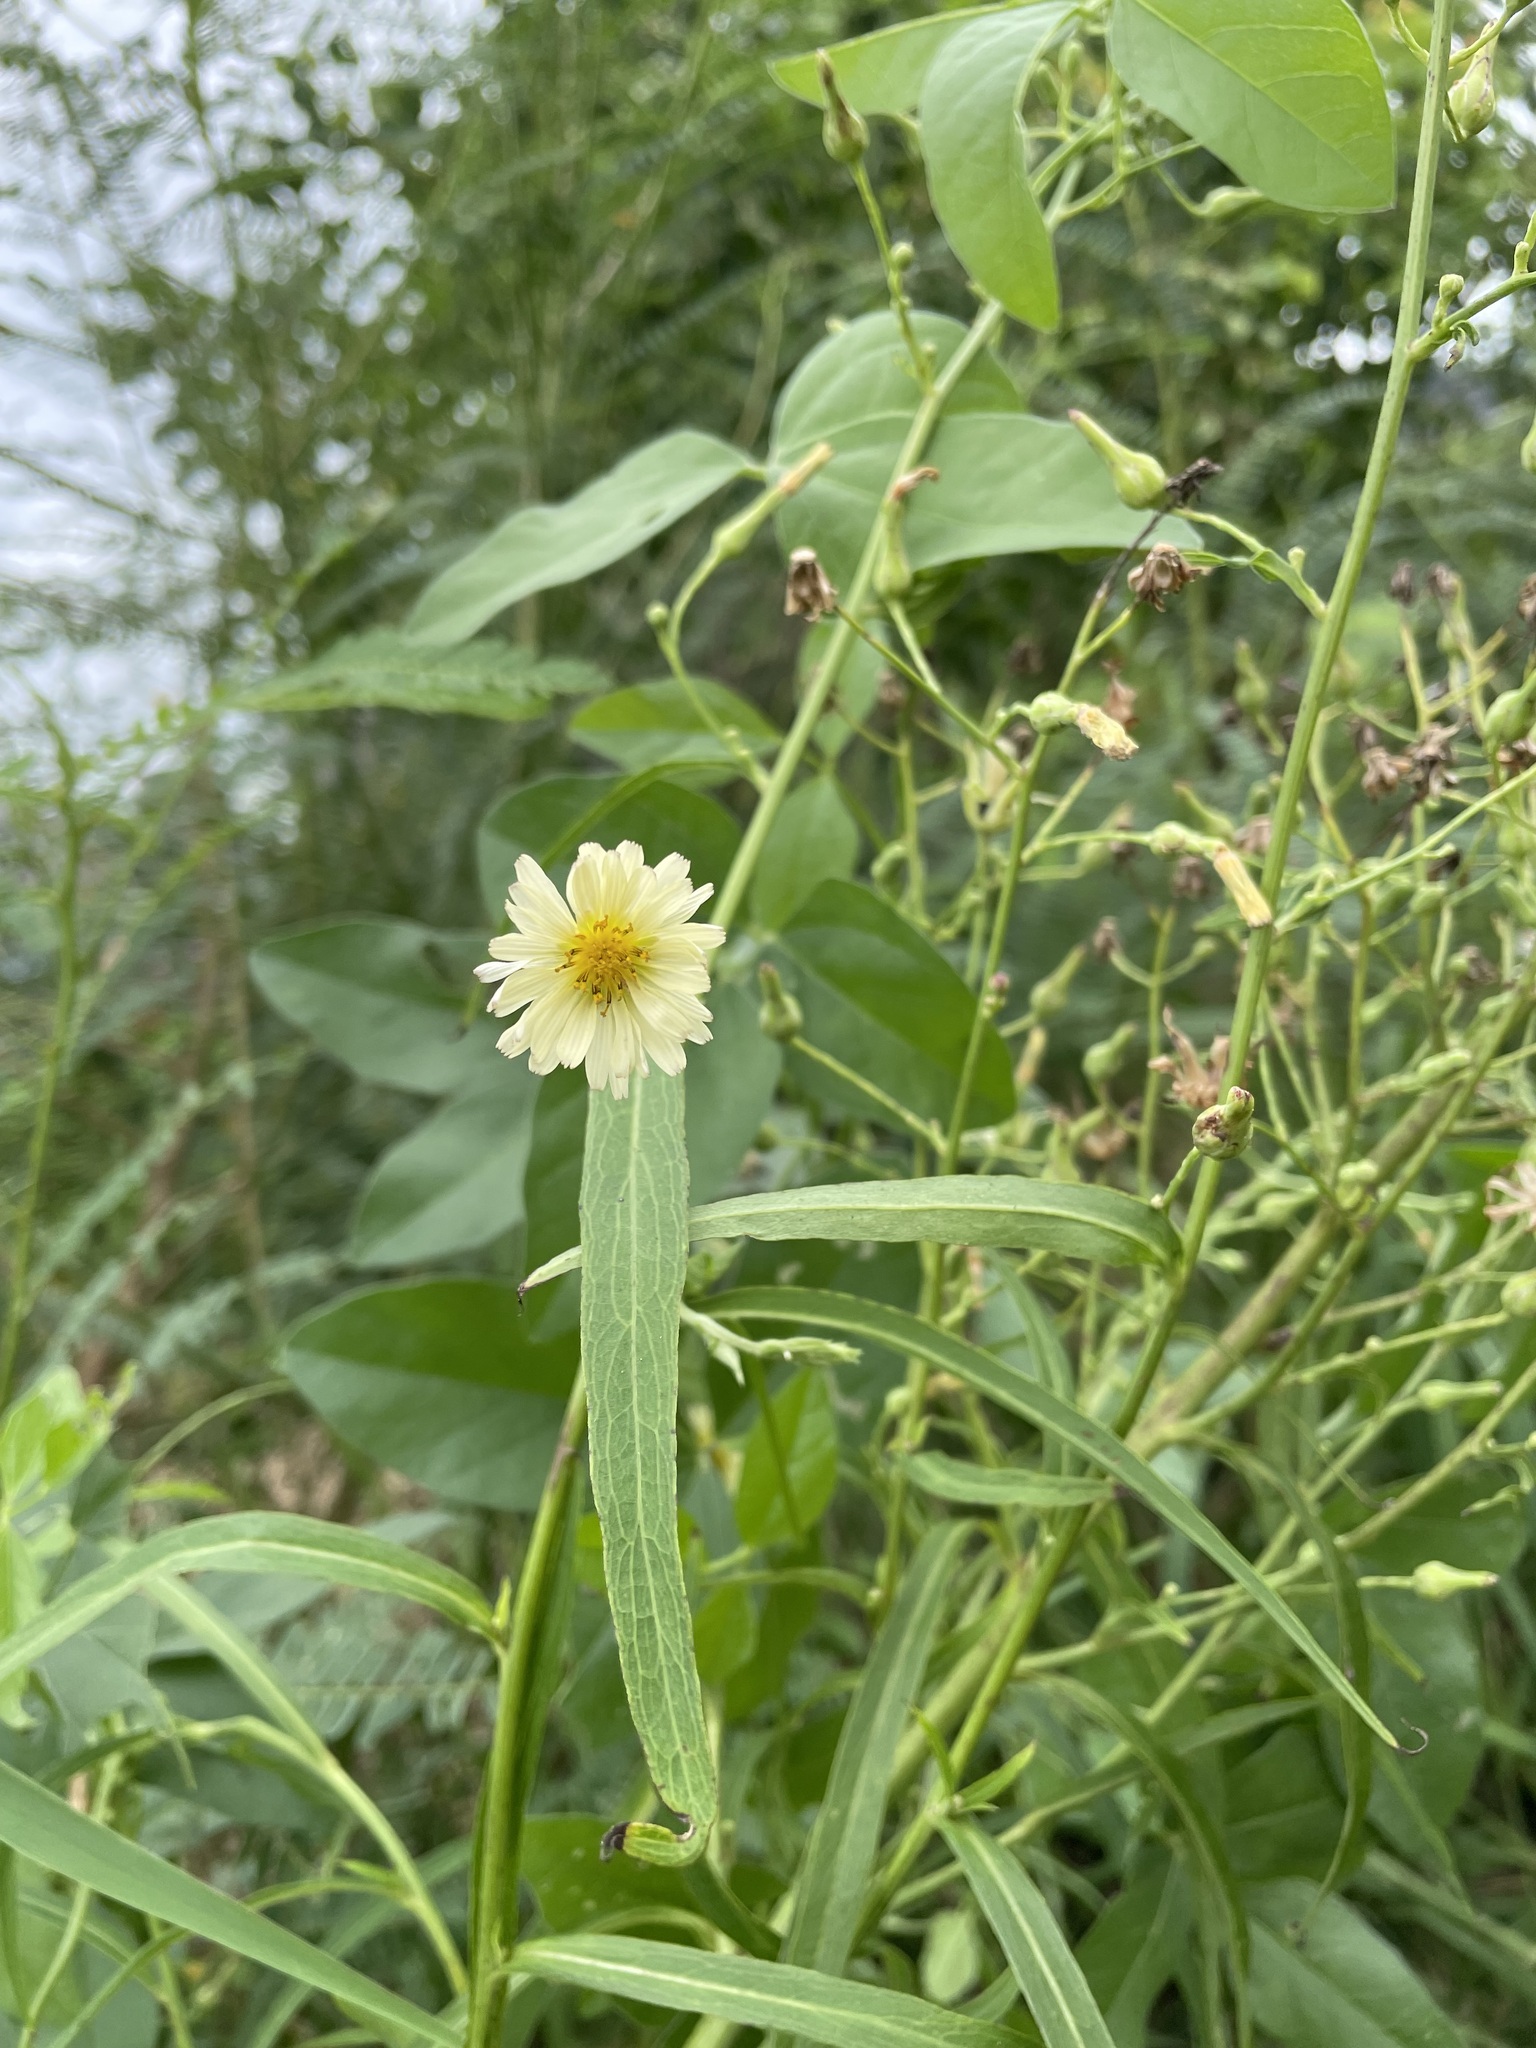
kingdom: Plantae
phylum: Tracheophyta
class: Magnoliopsida
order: Asterales
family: Asteraceae
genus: Lactuca
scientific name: Lactuca indica
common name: Wild lettuce
